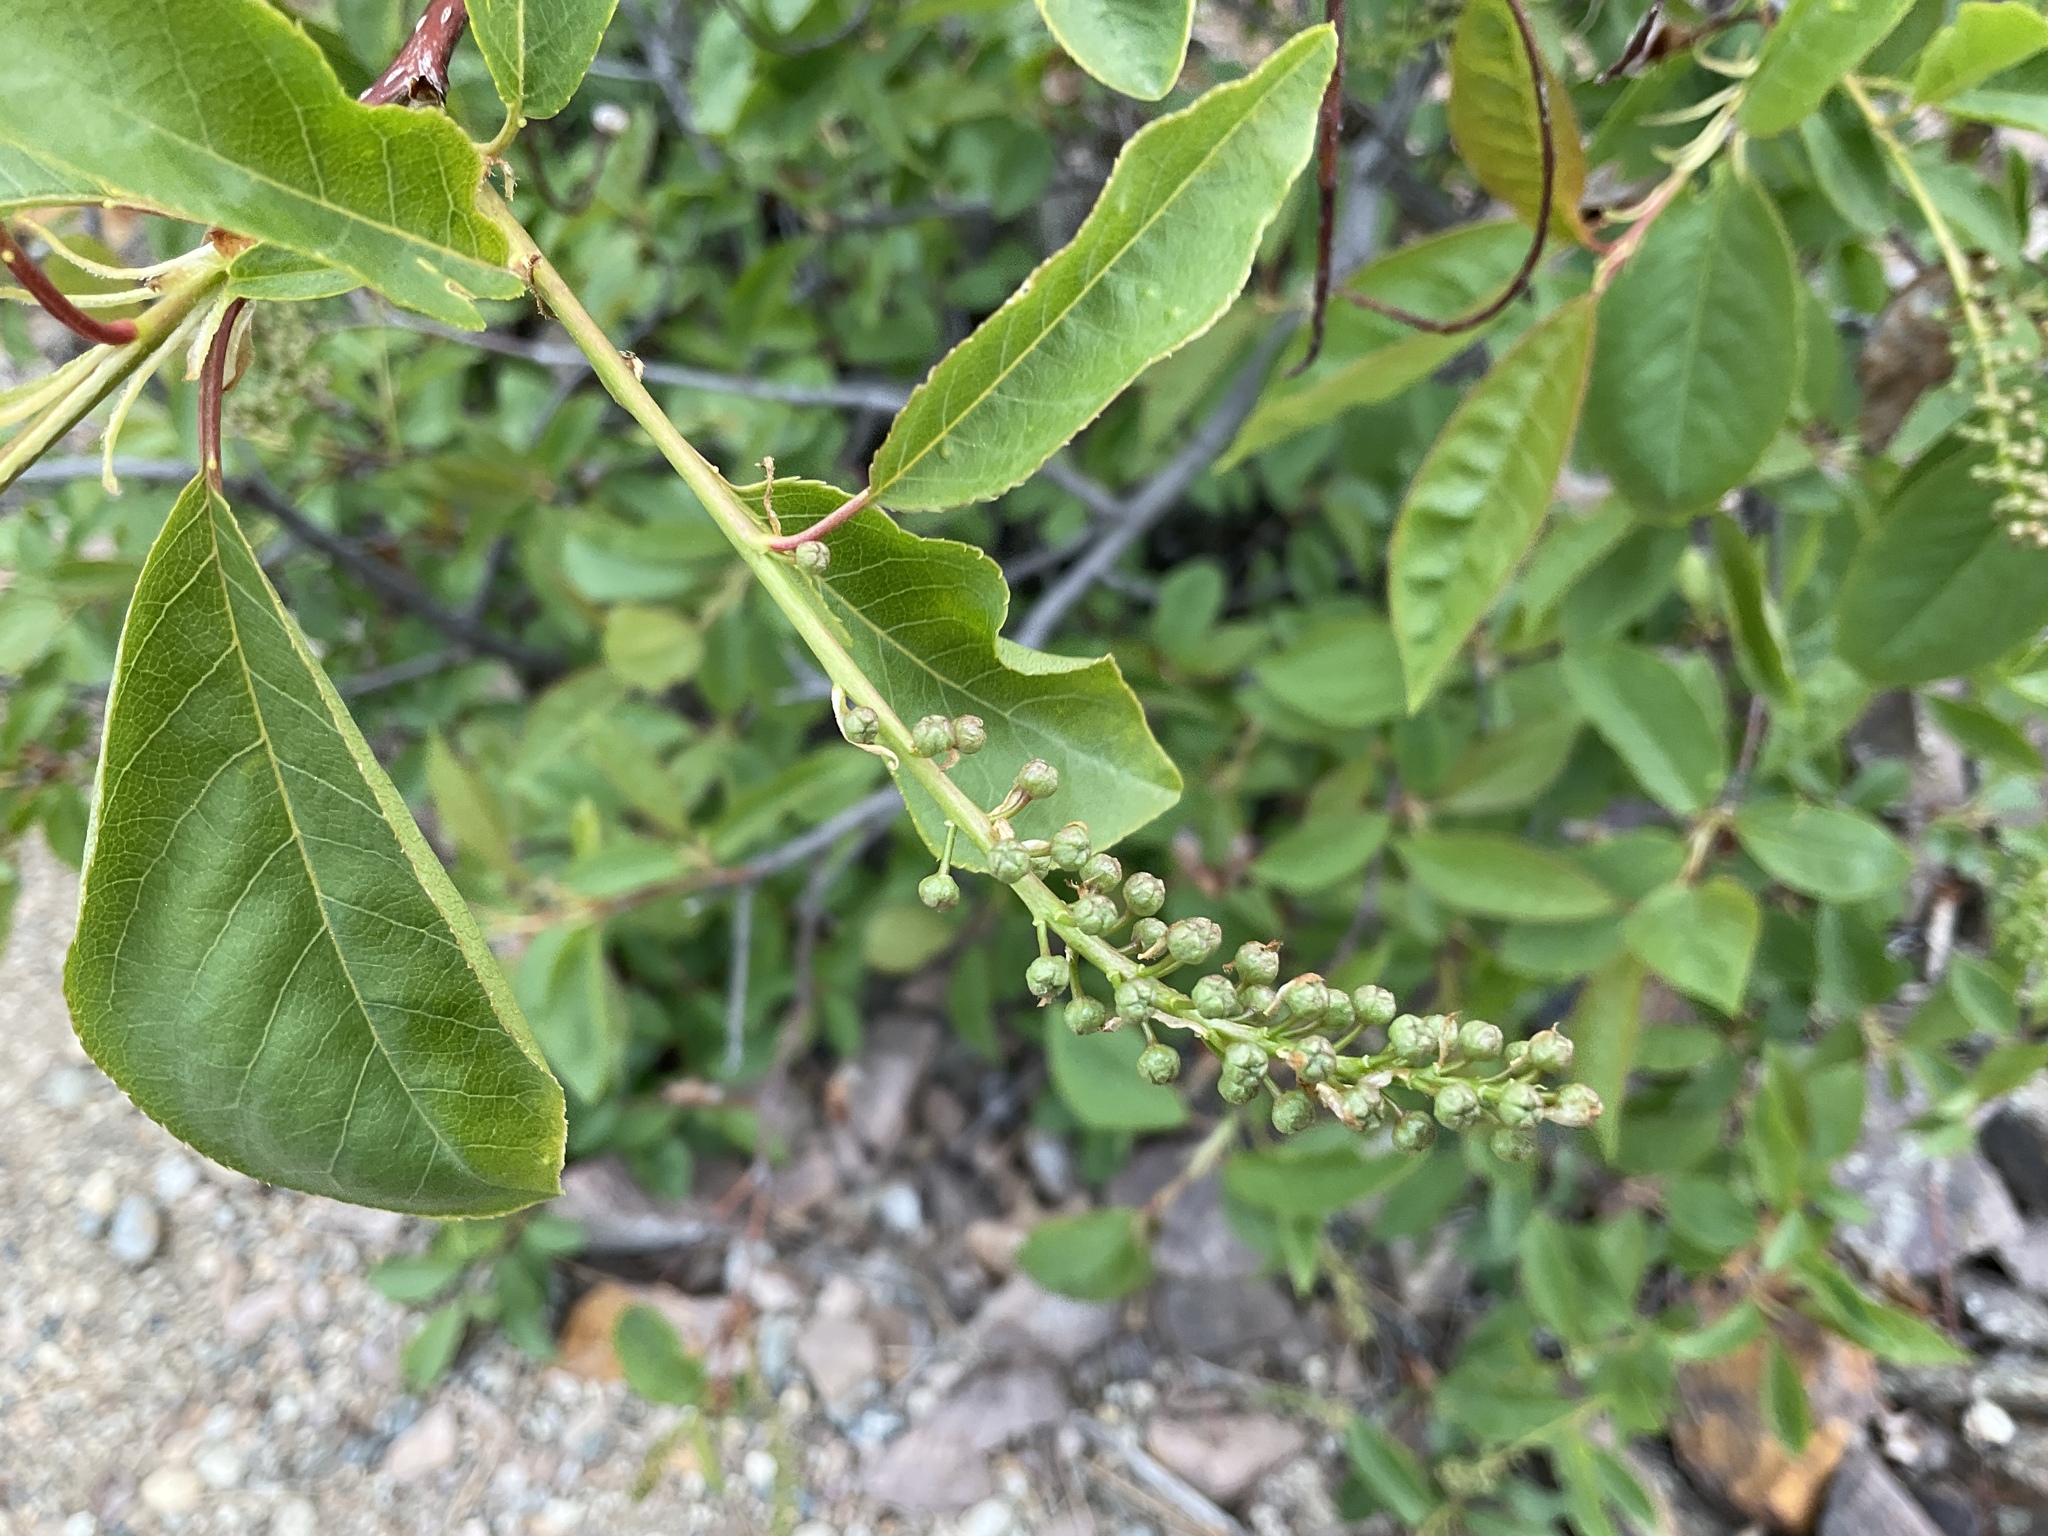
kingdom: Plantae
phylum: Tracheophyta
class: Magnoliopsida
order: Rosales
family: Rosaceae
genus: Prunus
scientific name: Prunus virginiana
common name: Chokecherry
